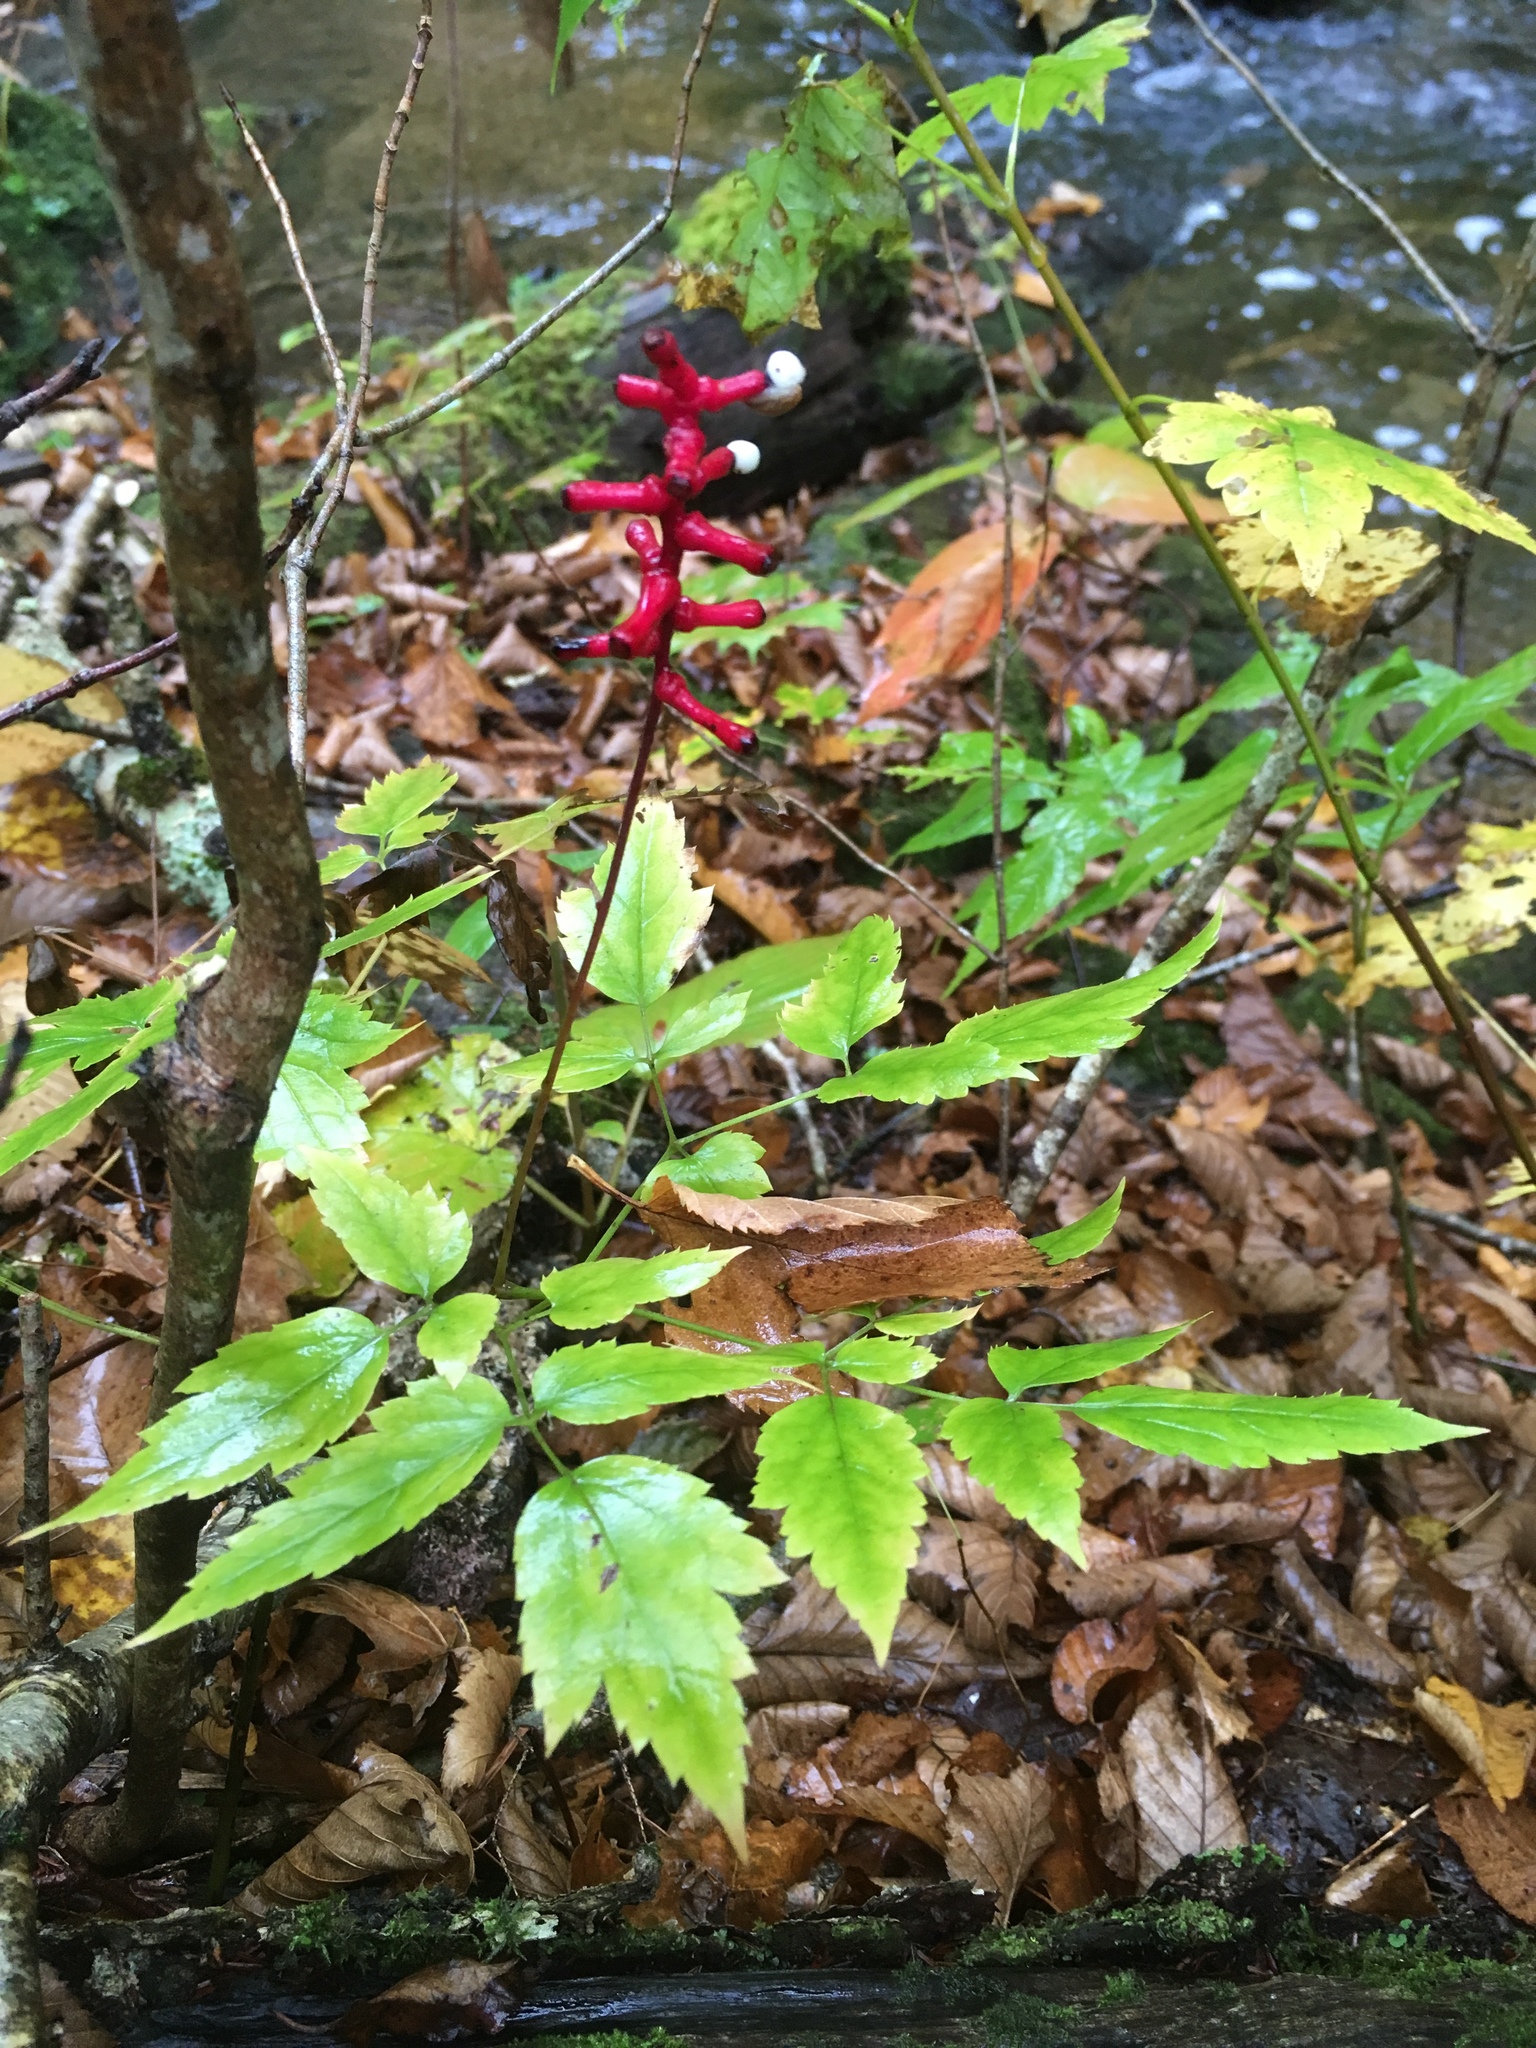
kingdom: Plantae
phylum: Tracheophyta
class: Magnoliopsida
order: Ranunculales
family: Ranunculaceae
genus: Actaea
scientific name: Actaea pachypoda
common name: Doll's-eyes
